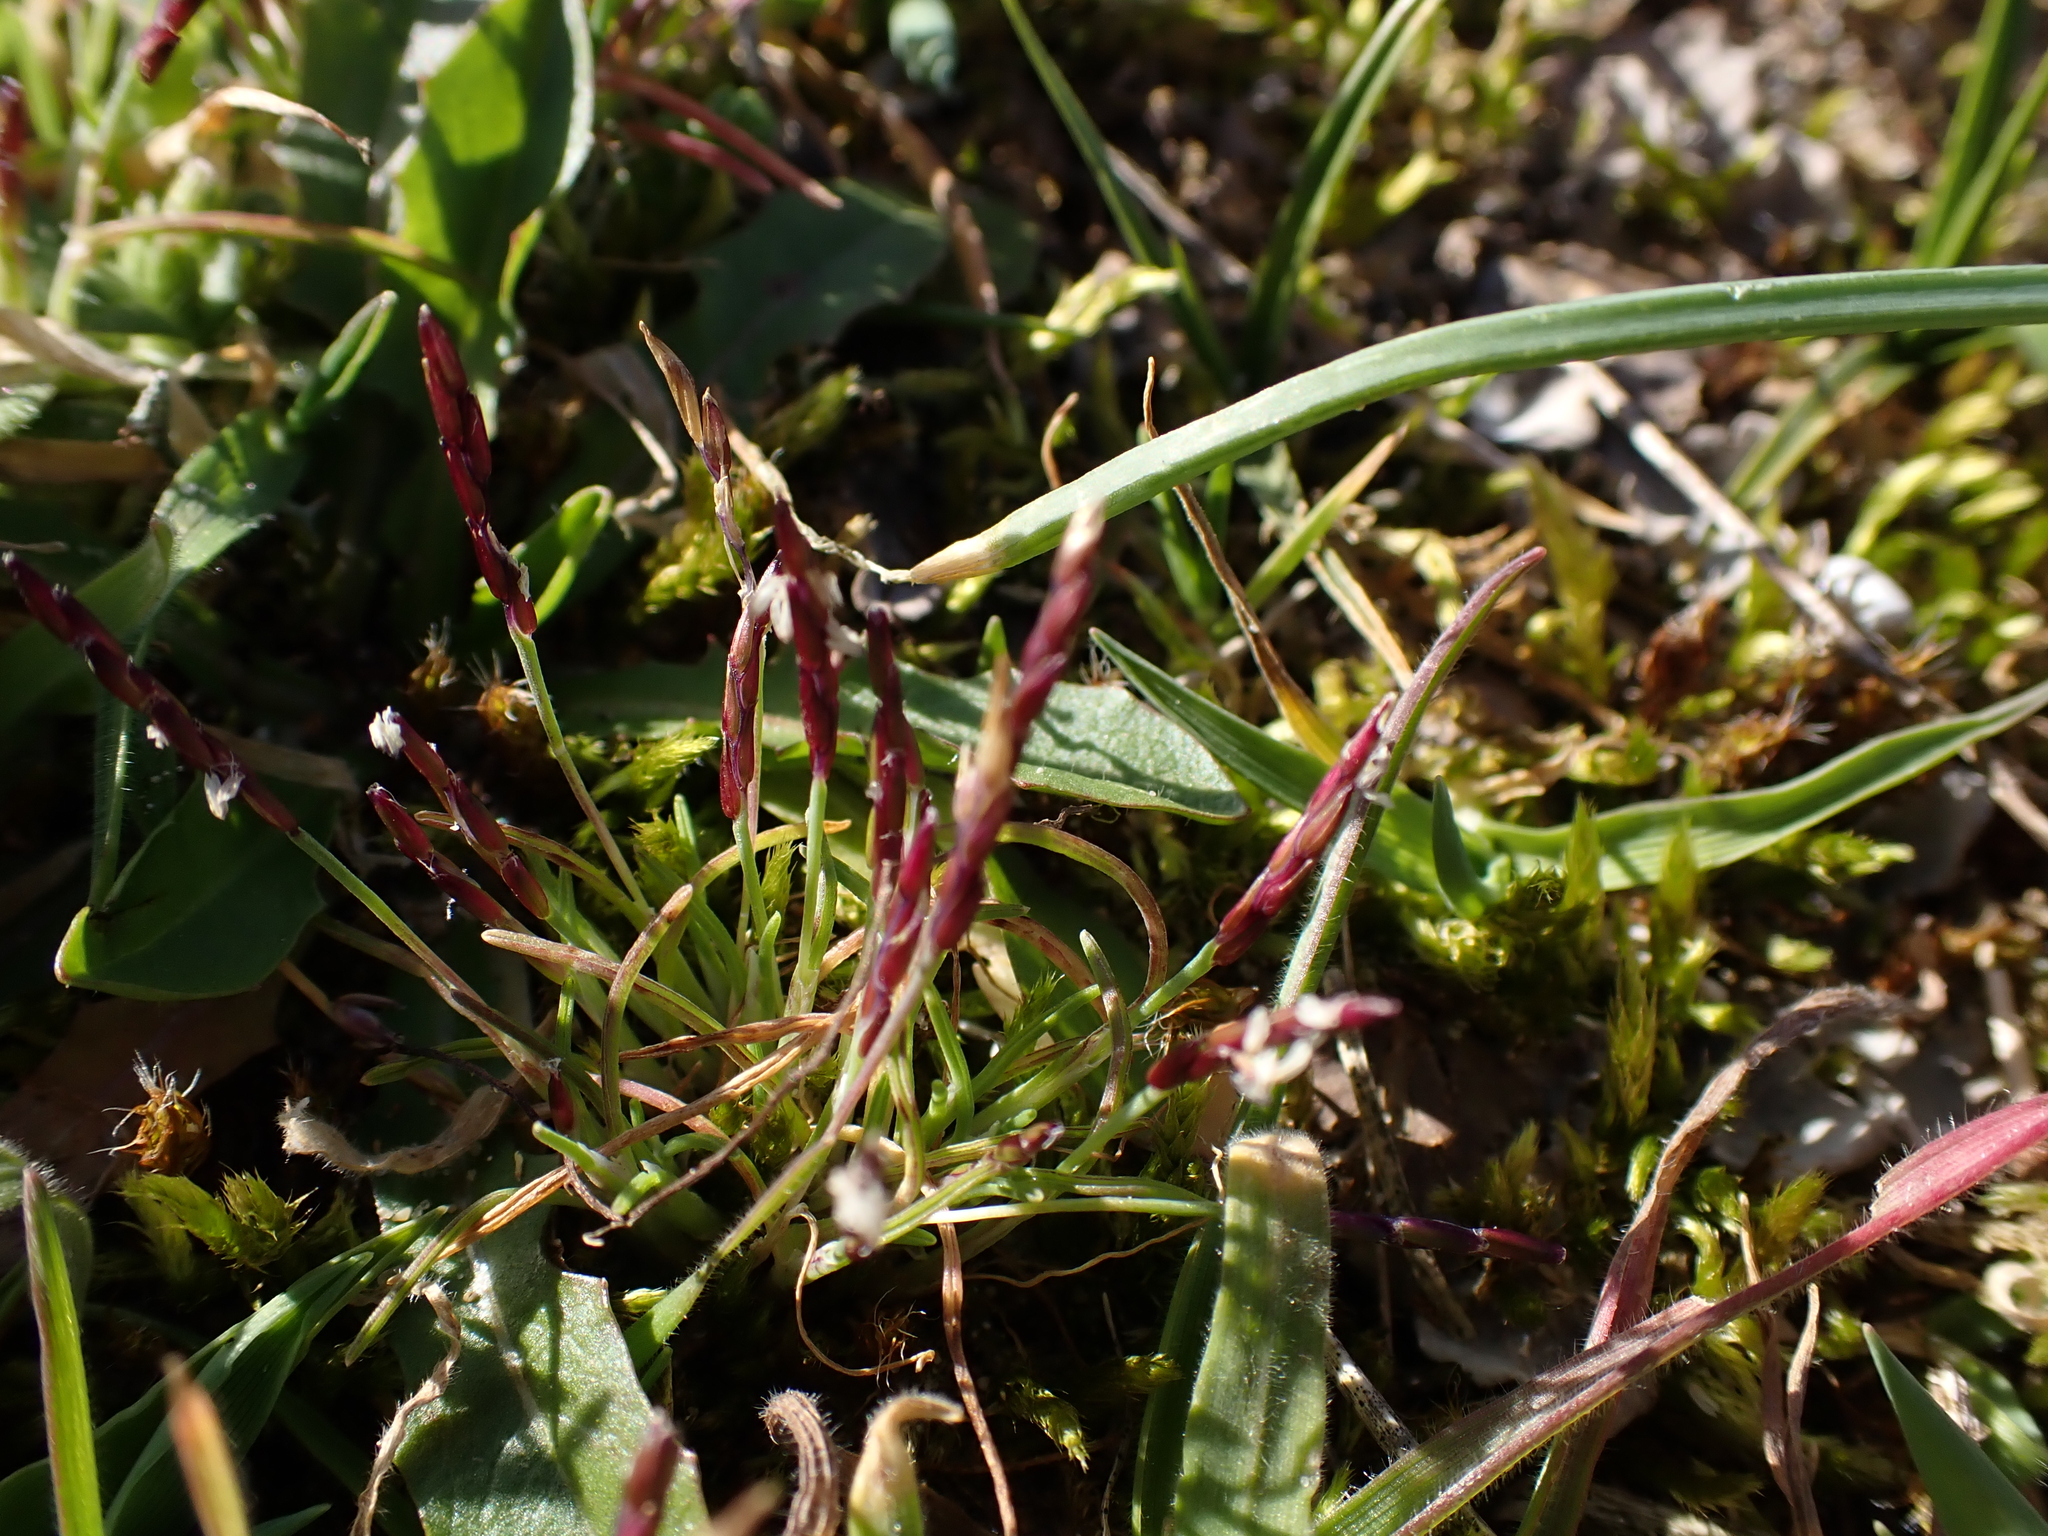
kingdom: Plantae
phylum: Tracheophyta
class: Liliopsida
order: Poales
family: Poaceae
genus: Mibora
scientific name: Mibora minima
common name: Early sand-grass
